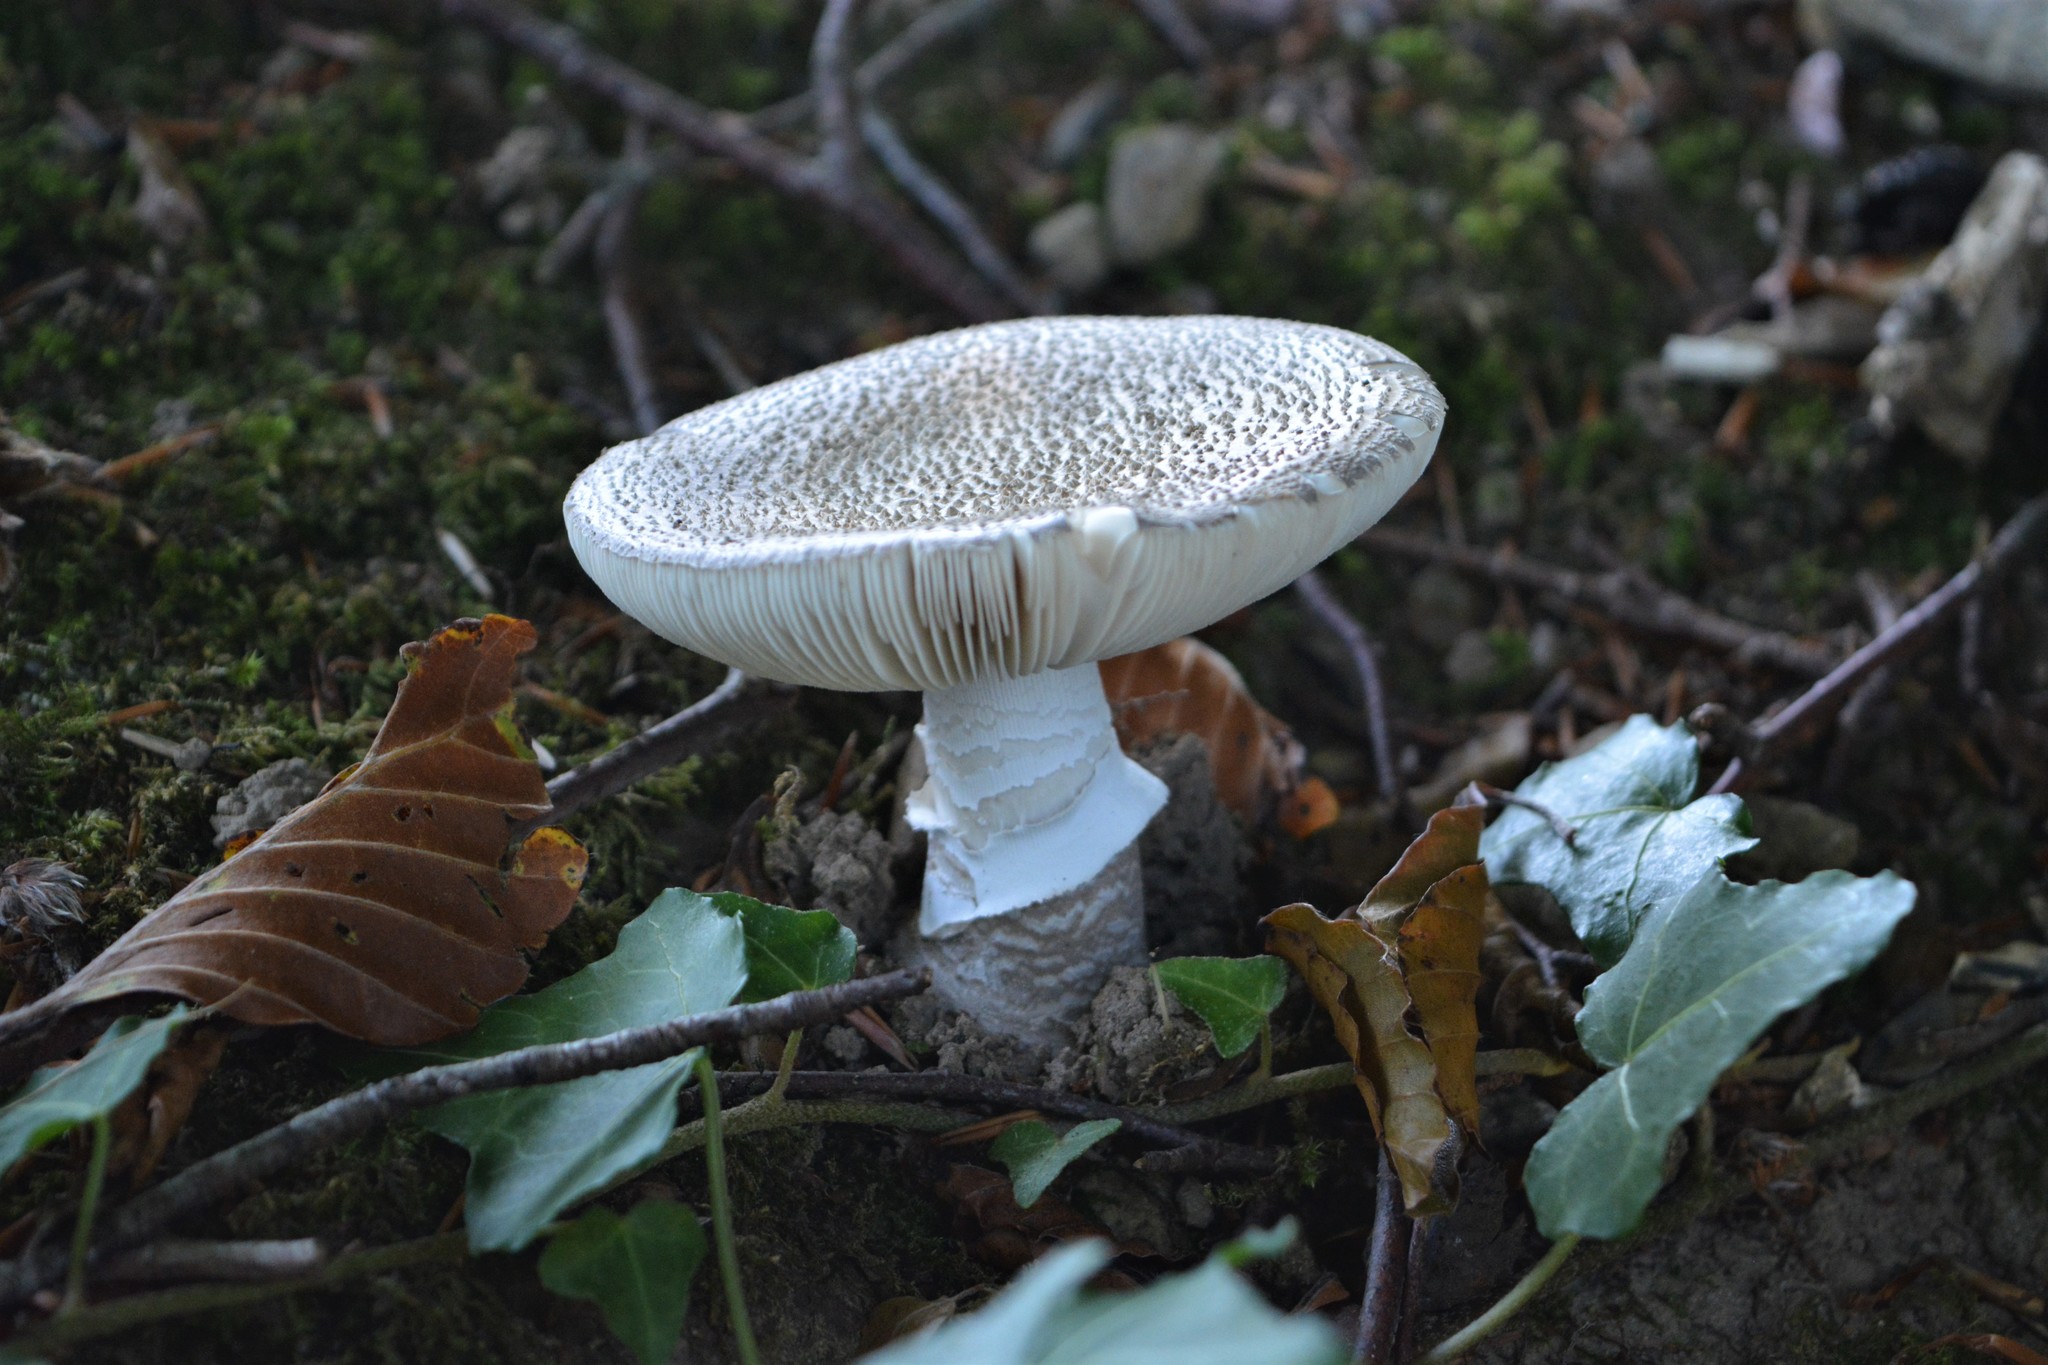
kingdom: Fungi
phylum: Basidiomycota
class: Agaricomycetes
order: Agaricales
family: Amanitaceae
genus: Amanita
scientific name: Amanita excelsa
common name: European false blusher
